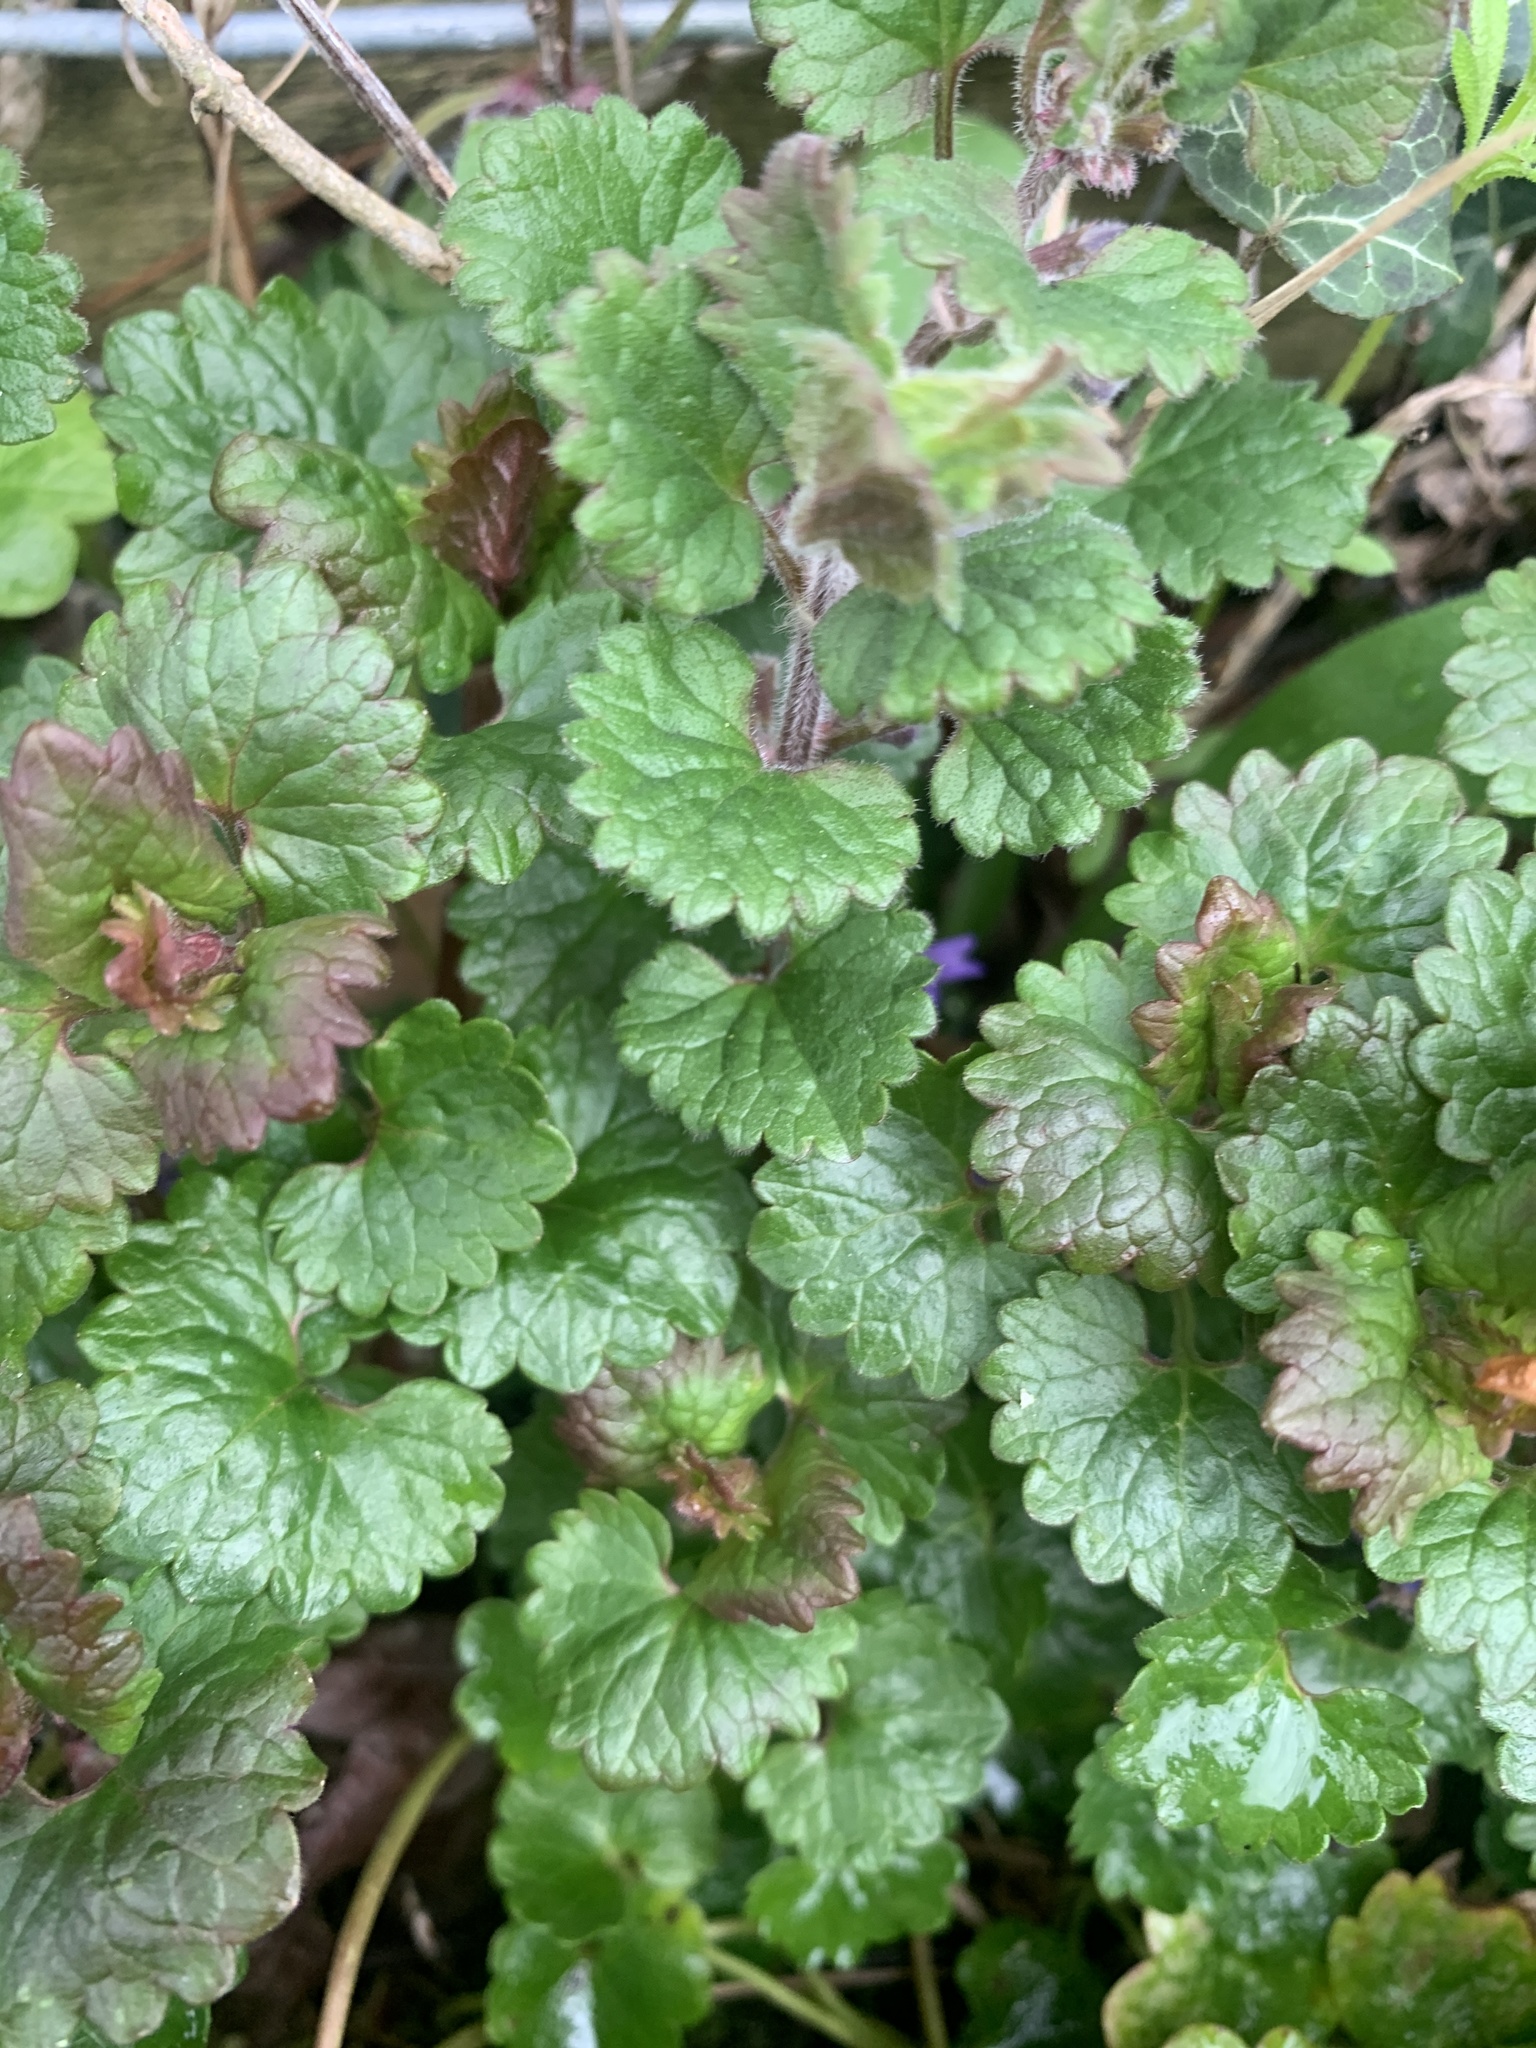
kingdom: Plantae
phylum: Tracheophyta
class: Magnoliopsida
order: Lamiales
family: Lamiaceae
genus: Glechoma
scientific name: Glechoma hederacea
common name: Ground ivy
